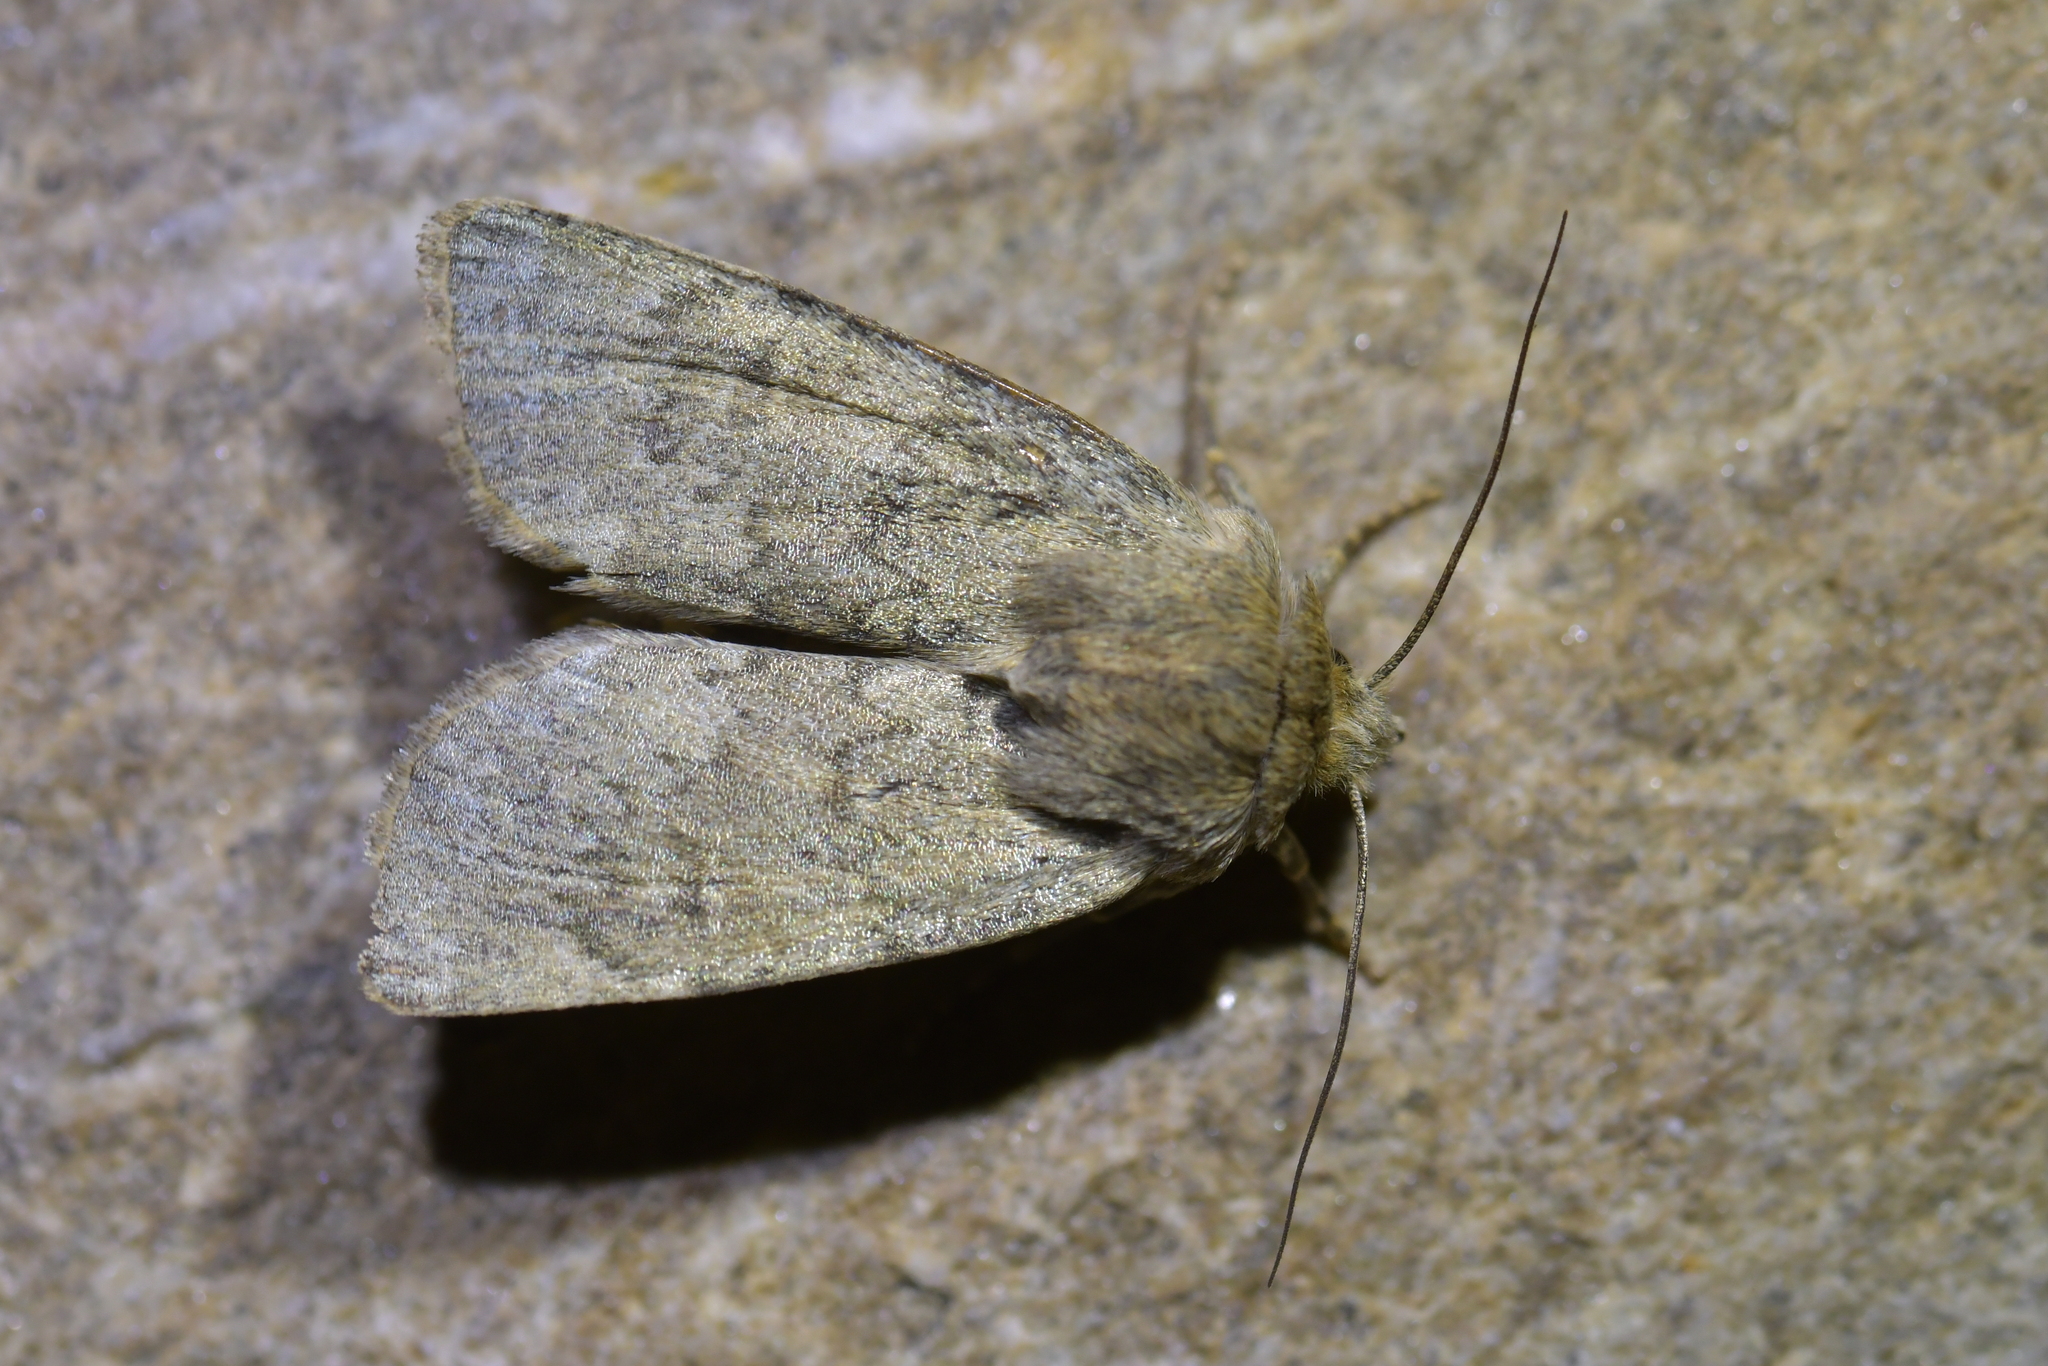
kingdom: Animalia
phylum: Arthropoda
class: Insecta
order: Lepidoptera
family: Noctuidae
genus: Physetica
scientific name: Physetica caerulea
